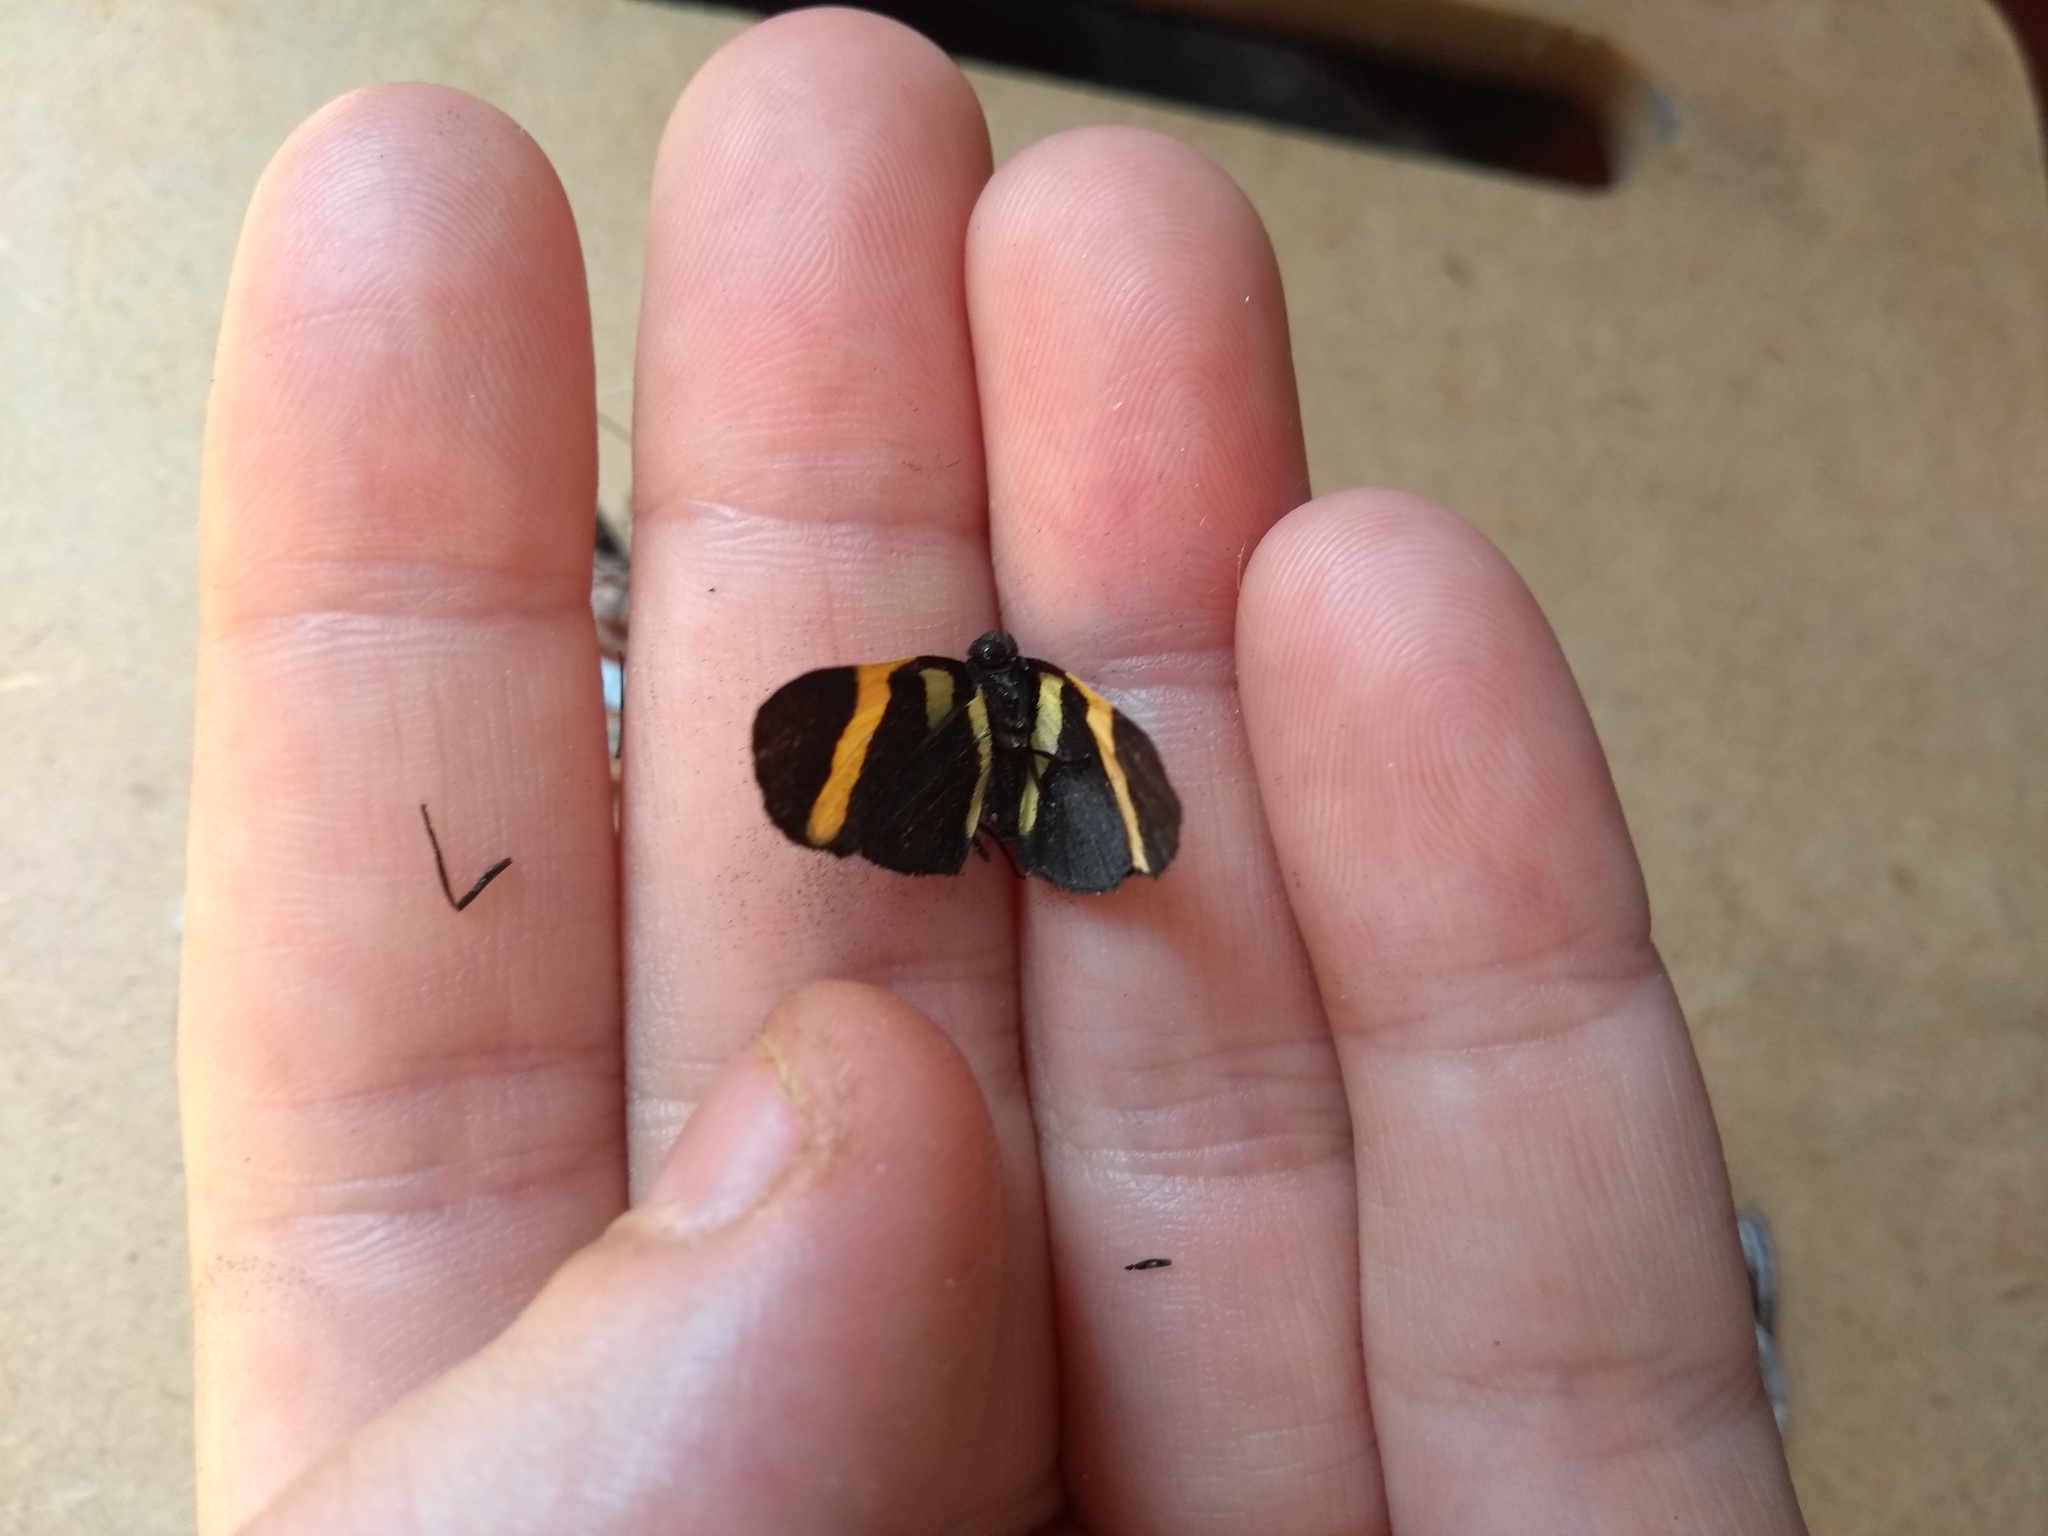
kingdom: Animalia
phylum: Arthropoda
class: Insecta
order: Lepidoptera
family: Lycaenidae
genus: Melanis
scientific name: Melanis agyrtus
